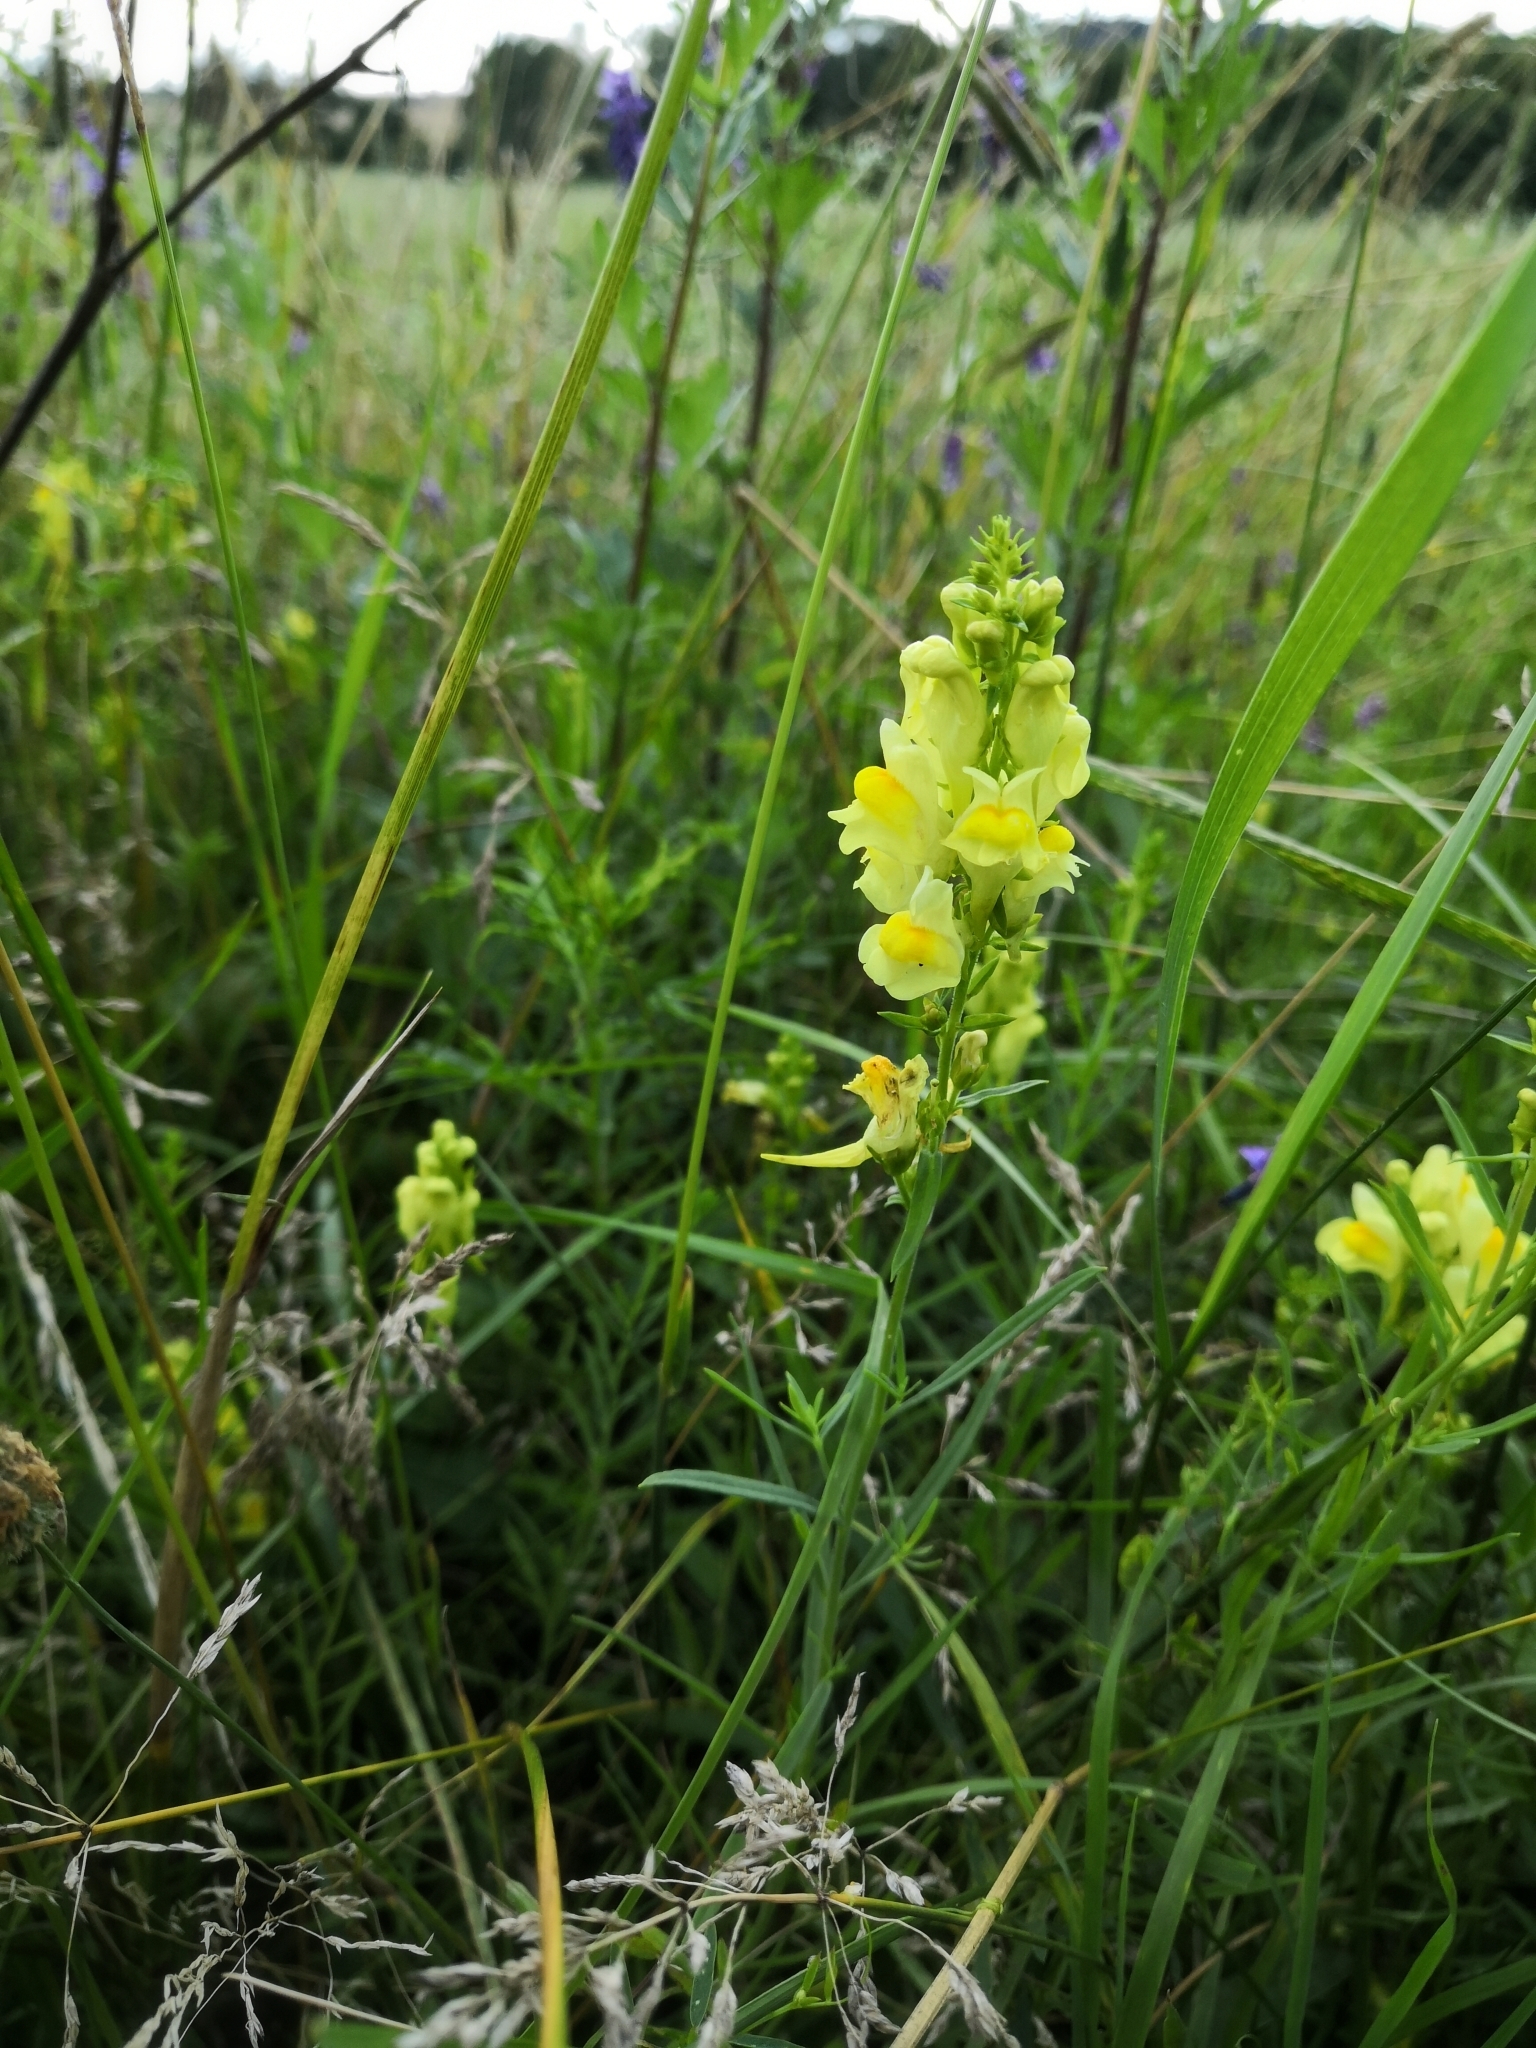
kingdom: Plantae
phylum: Tracheophyta
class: Magnoliopsida
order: Lamiales
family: Plantaginaceae
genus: Linaria
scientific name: Linaria vulgaris
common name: Butter and eggs
